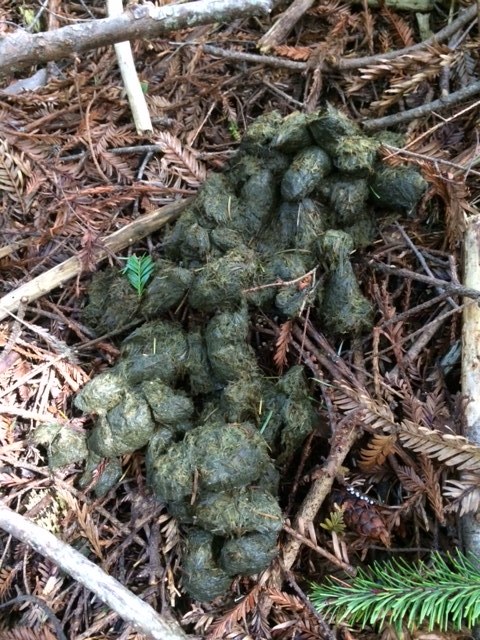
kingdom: Animalia
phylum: Chordata
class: Mammalia
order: Carnivora
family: Ursidae
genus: Ursus
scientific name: Ursus americanus
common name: American black bear
